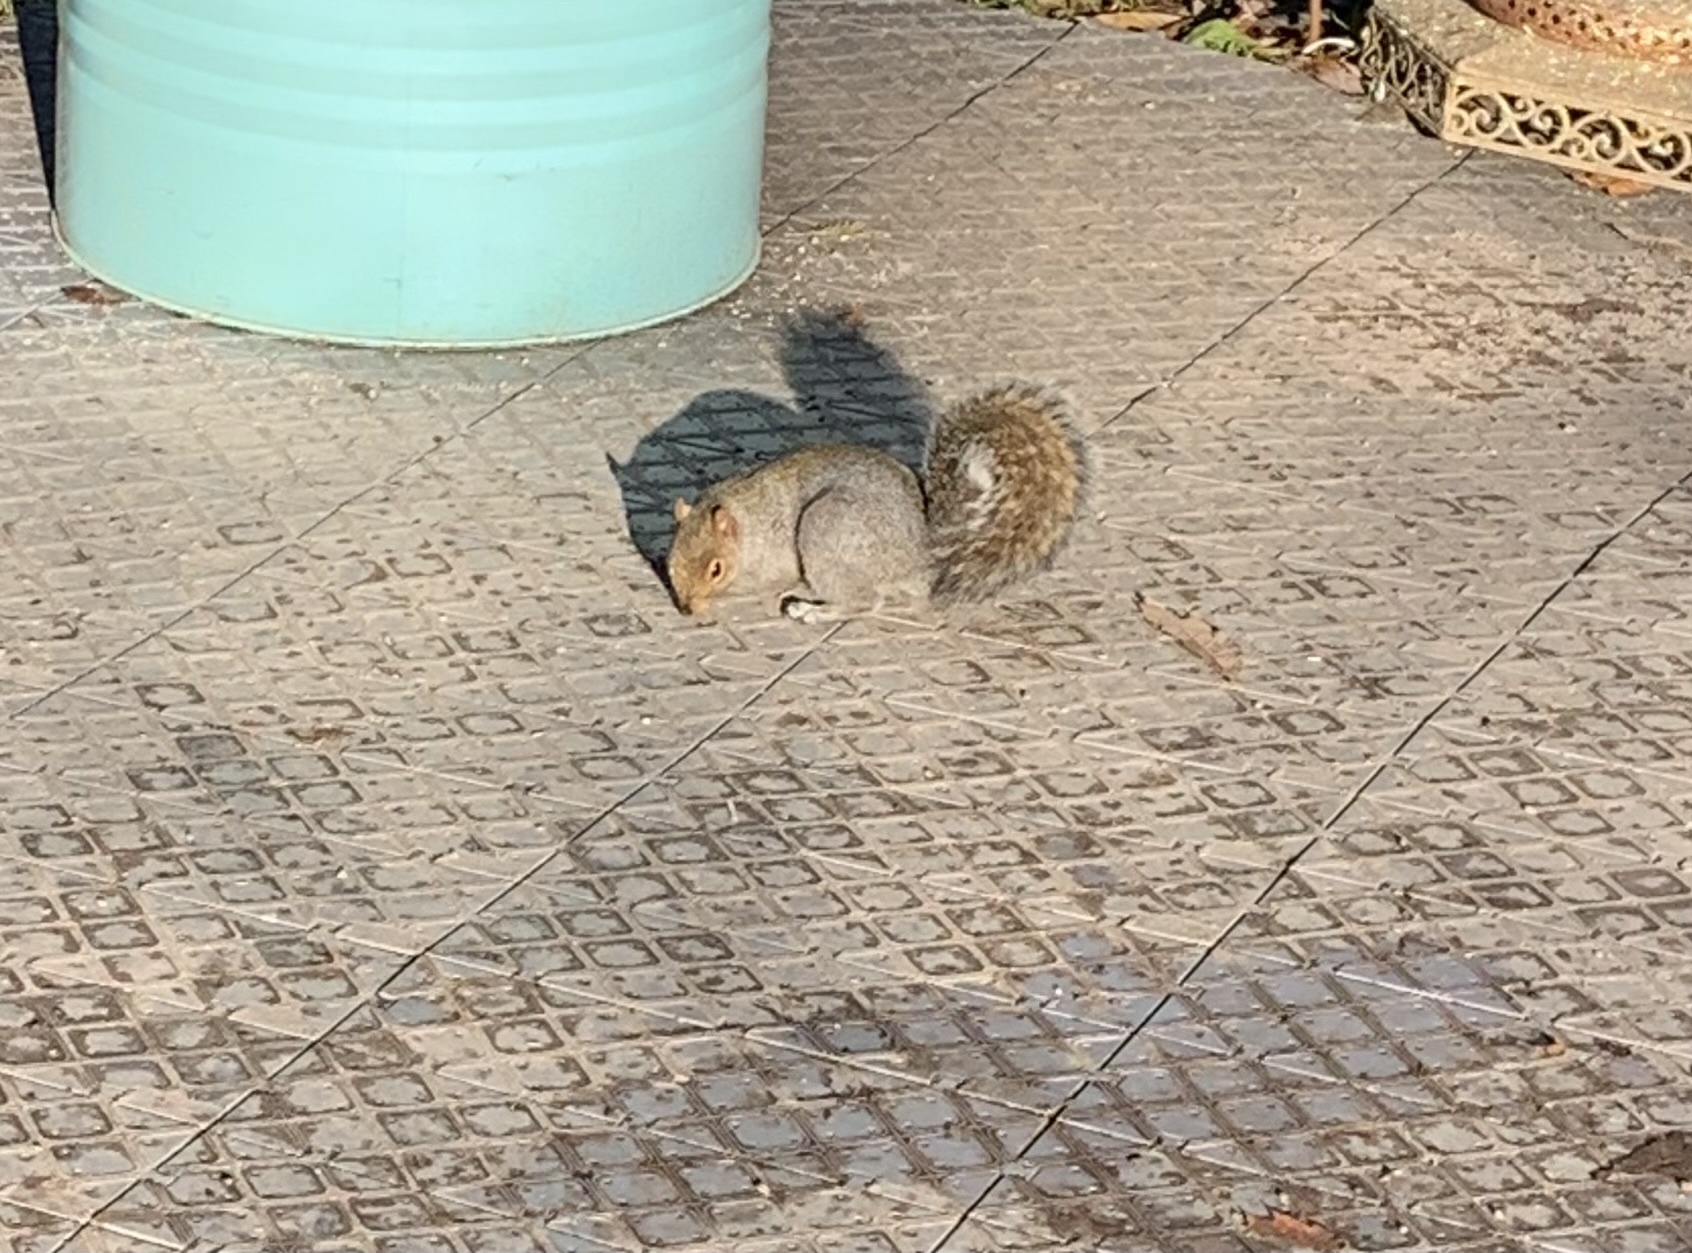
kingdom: Animalia
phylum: Chordata
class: Mammalia
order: Rodentia
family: Sciuridae
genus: Sciurus
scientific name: Sciurus carolinensis
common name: Eastern gray squirrel
